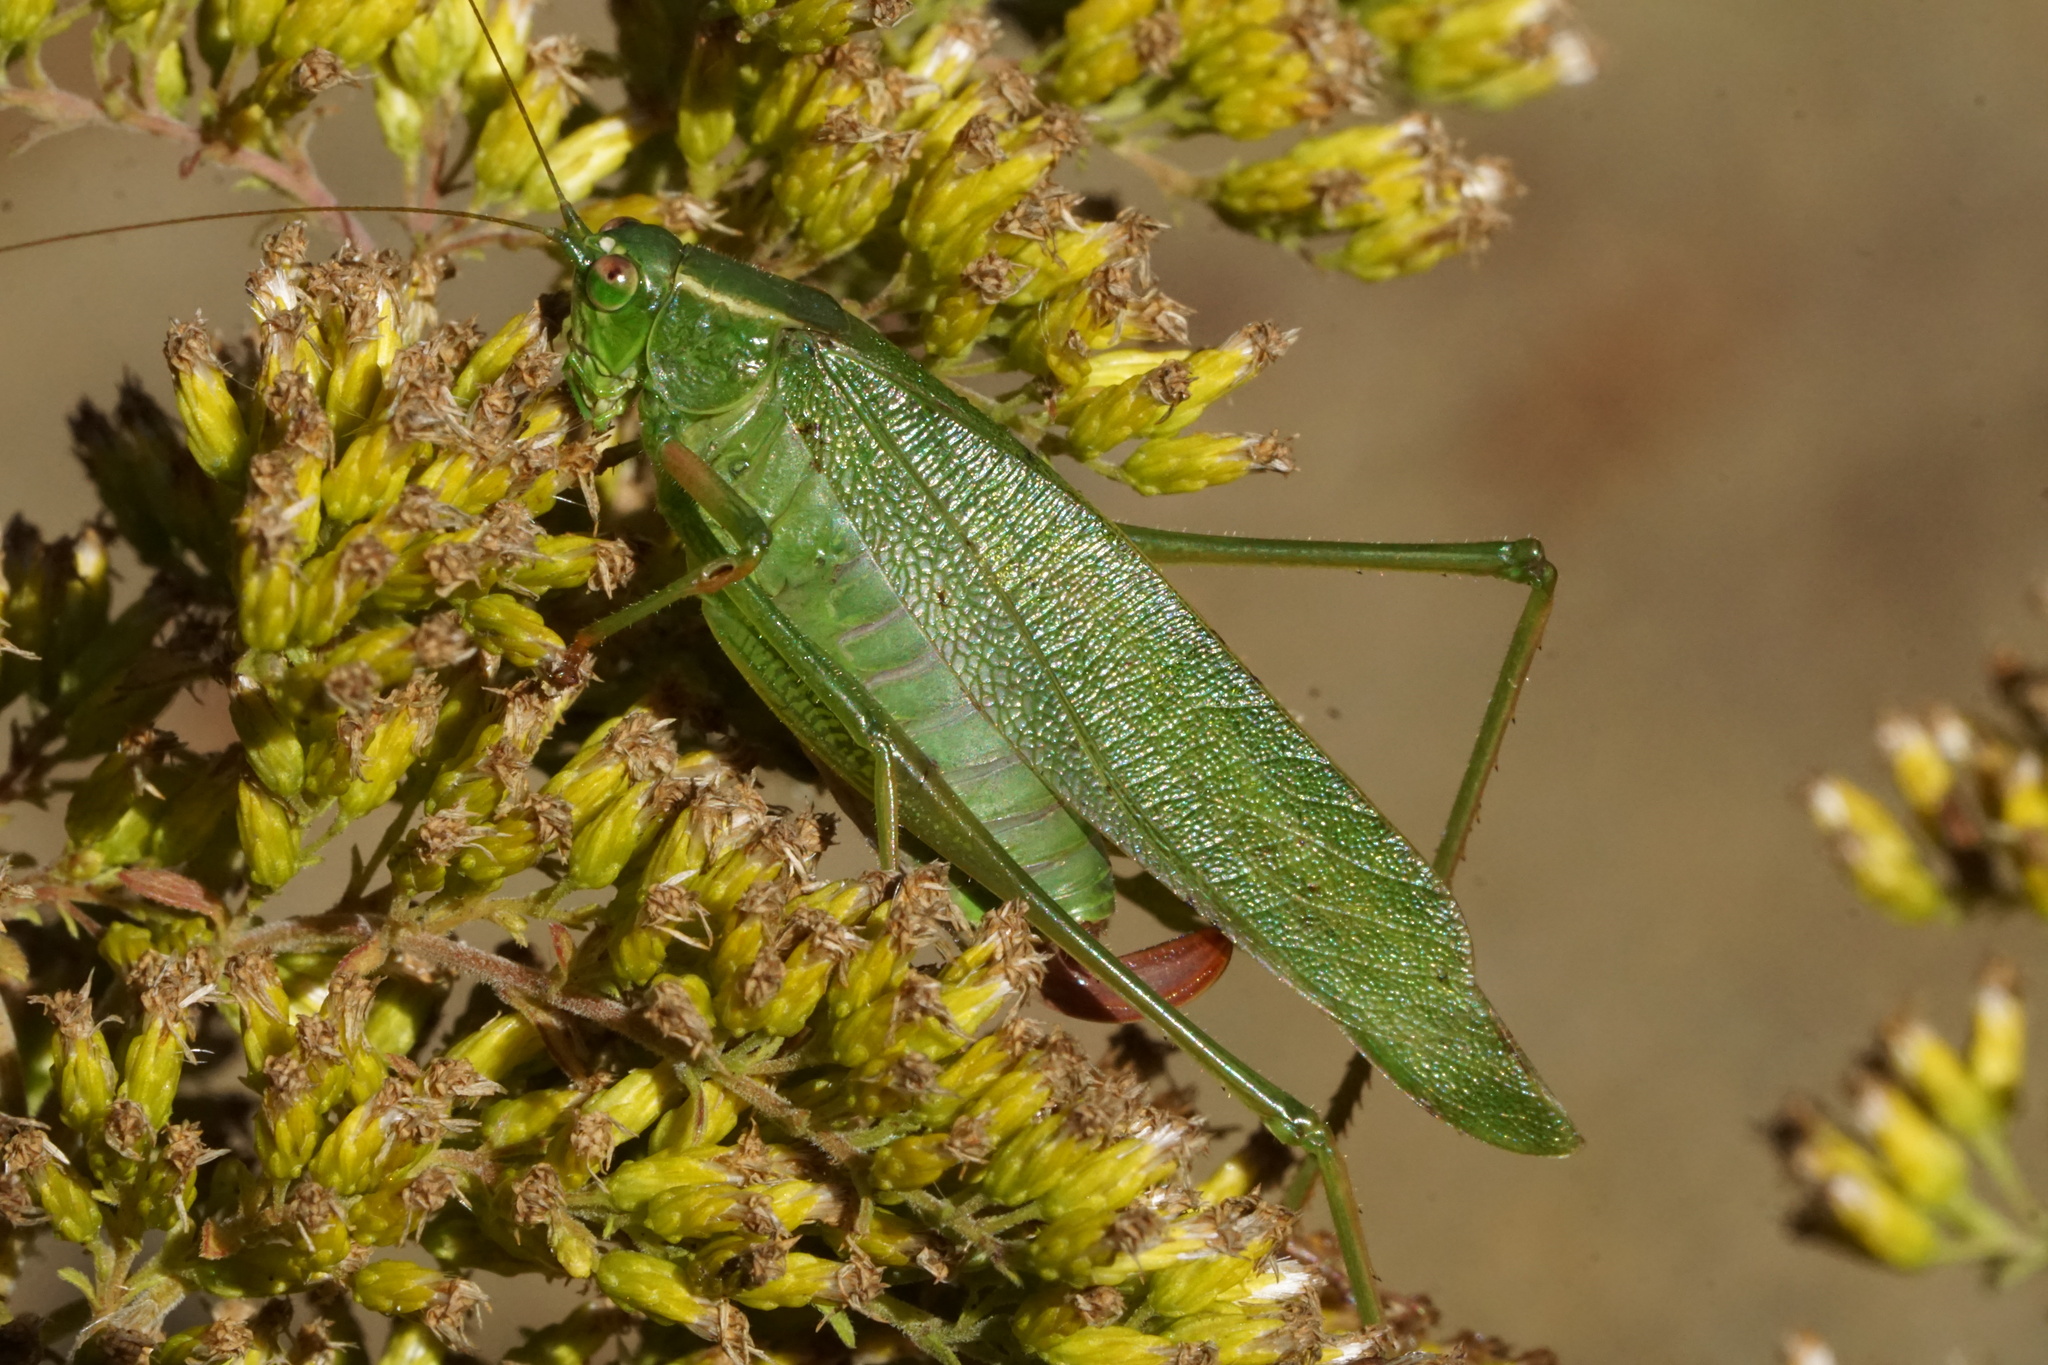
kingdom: Animalia
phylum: Arthropoda
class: Insecta
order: Orthoptera
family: Tettigoniidae
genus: Scudderia
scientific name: Scudderia furcata
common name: Fork-tailed bush katydid
